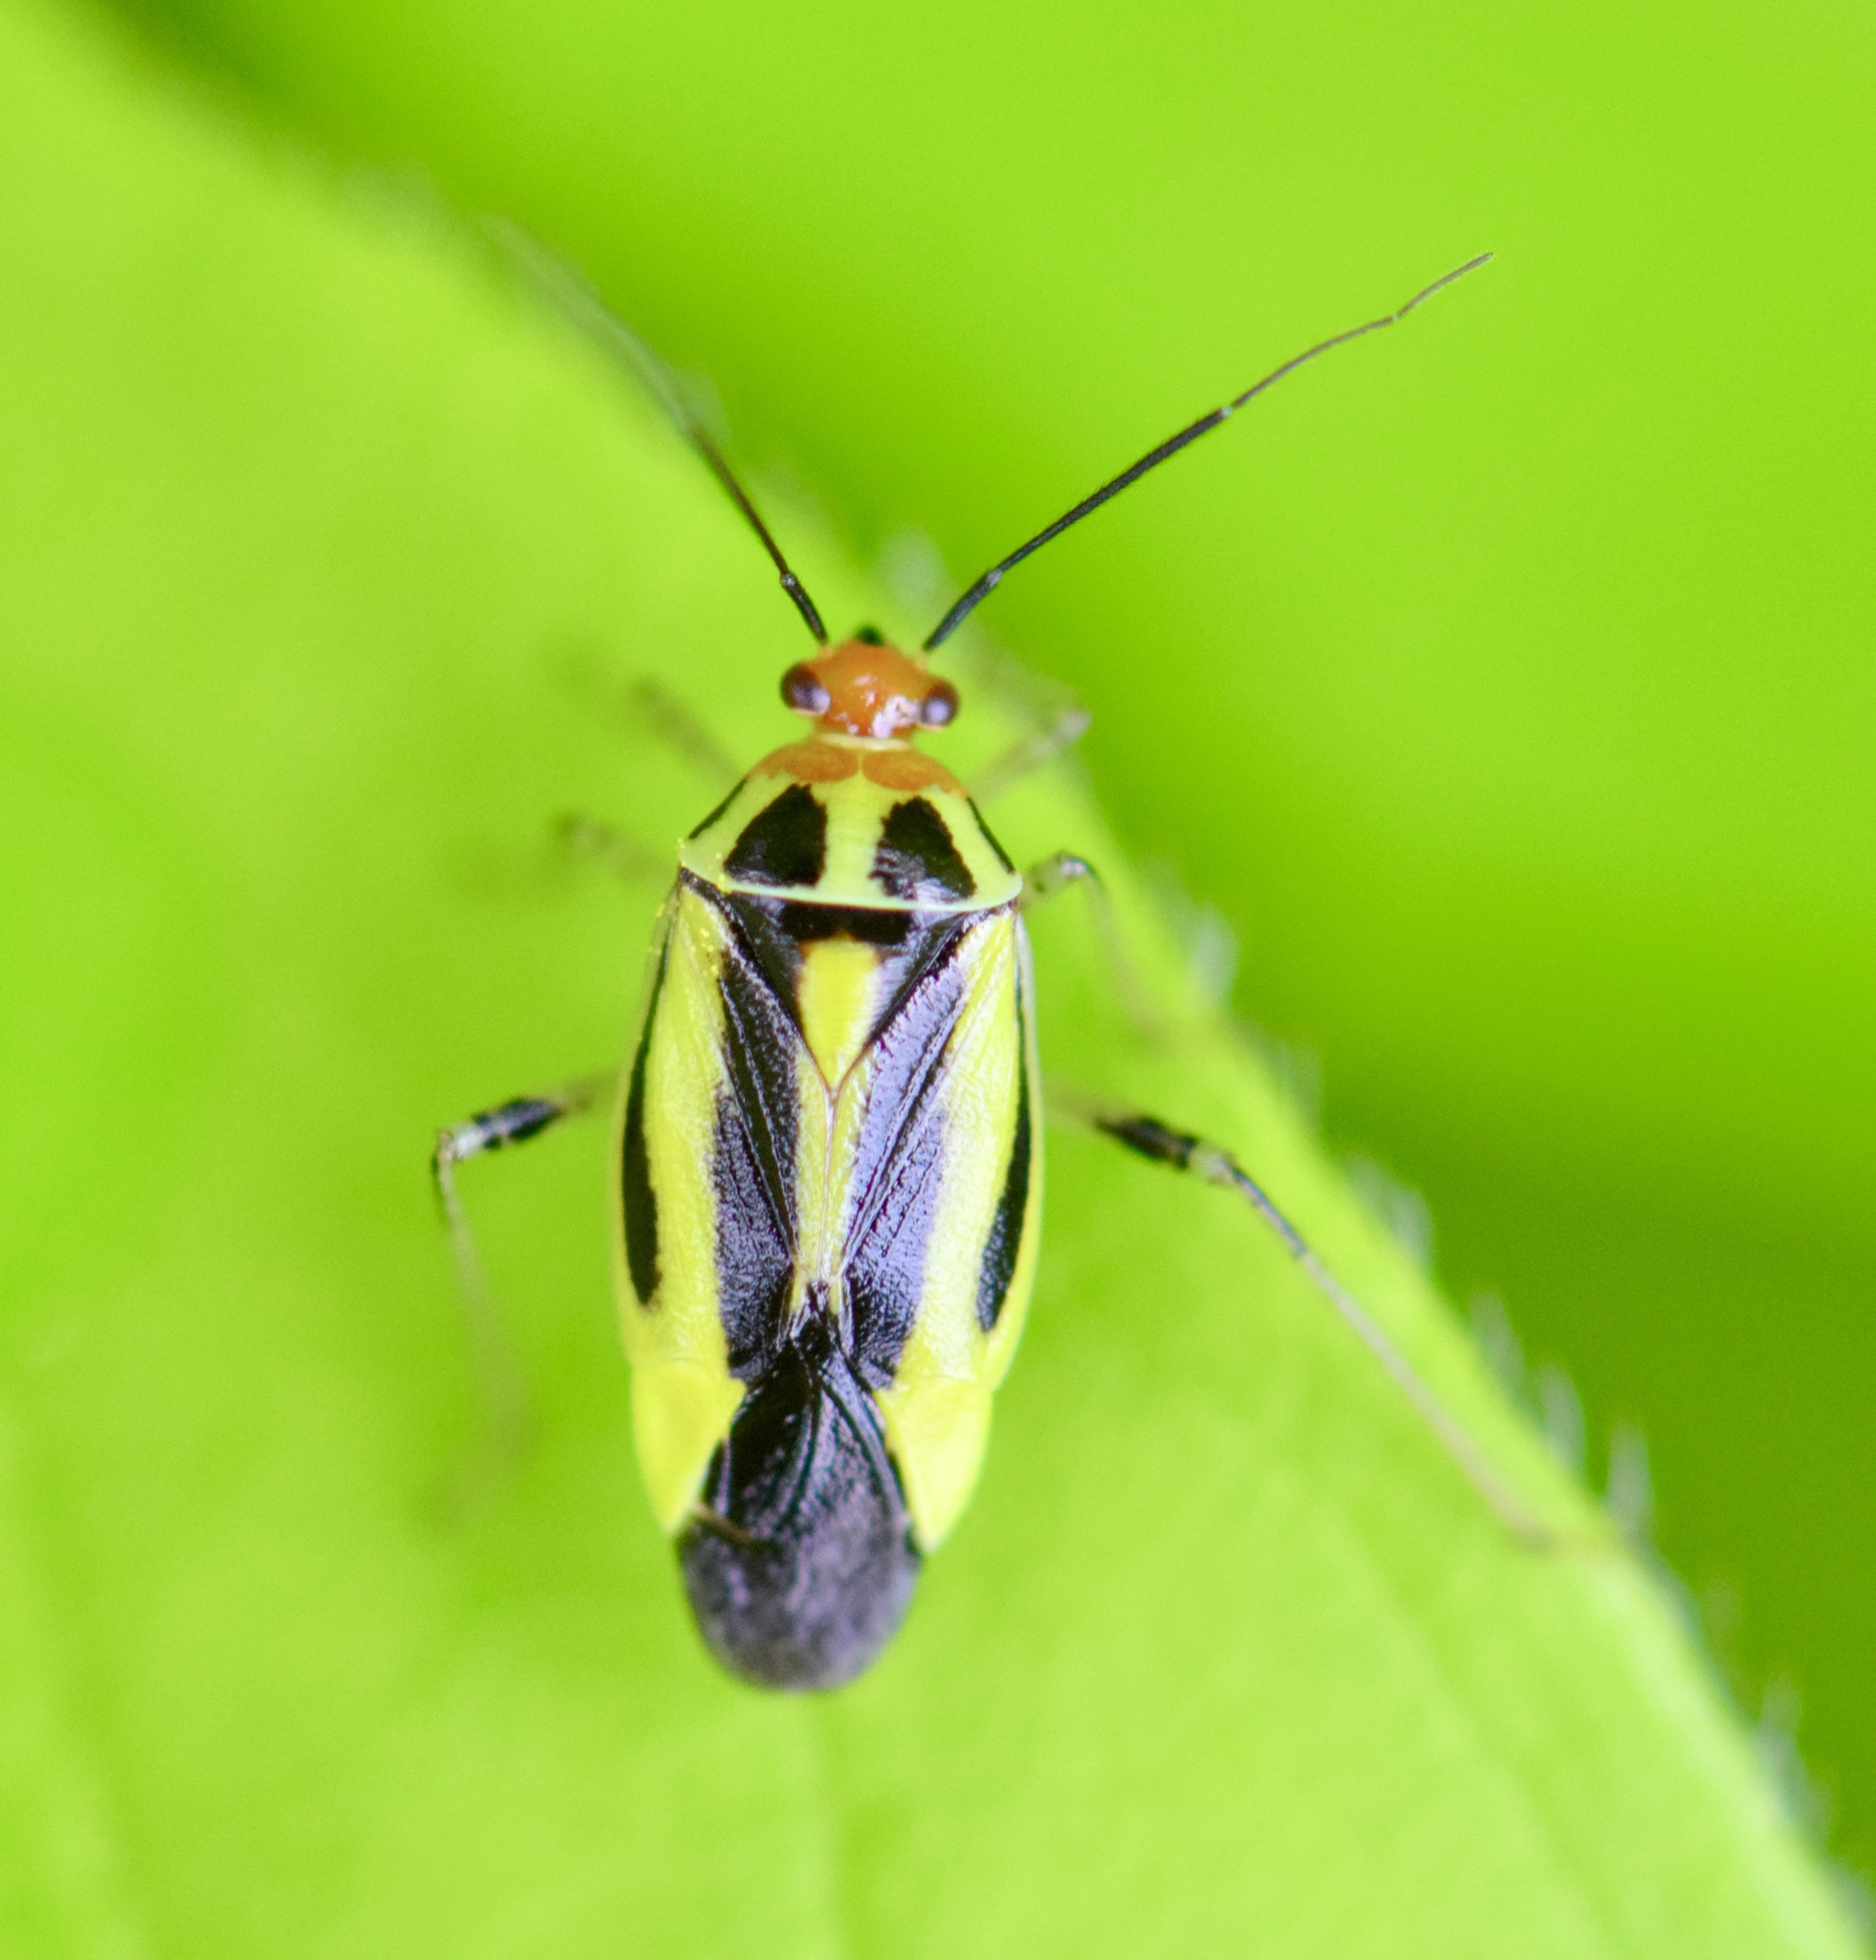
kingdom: Animalia
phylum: Arthropoda
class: Insecta
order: Hemiptera
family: Miridae
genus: Poecilocapsus
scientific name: Poecilocapsus lineatus
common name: Four-lined plant bug
